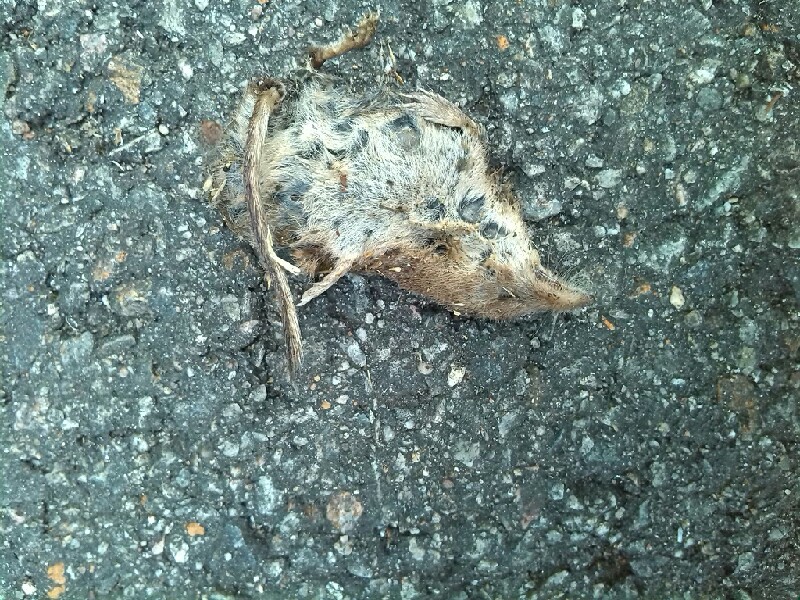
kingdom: Animalia
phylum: Chordata
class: Mammalia
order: Soricomorpha
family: Soricidae
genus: Sorex
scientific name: Sorex araneus
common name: Common shrew
